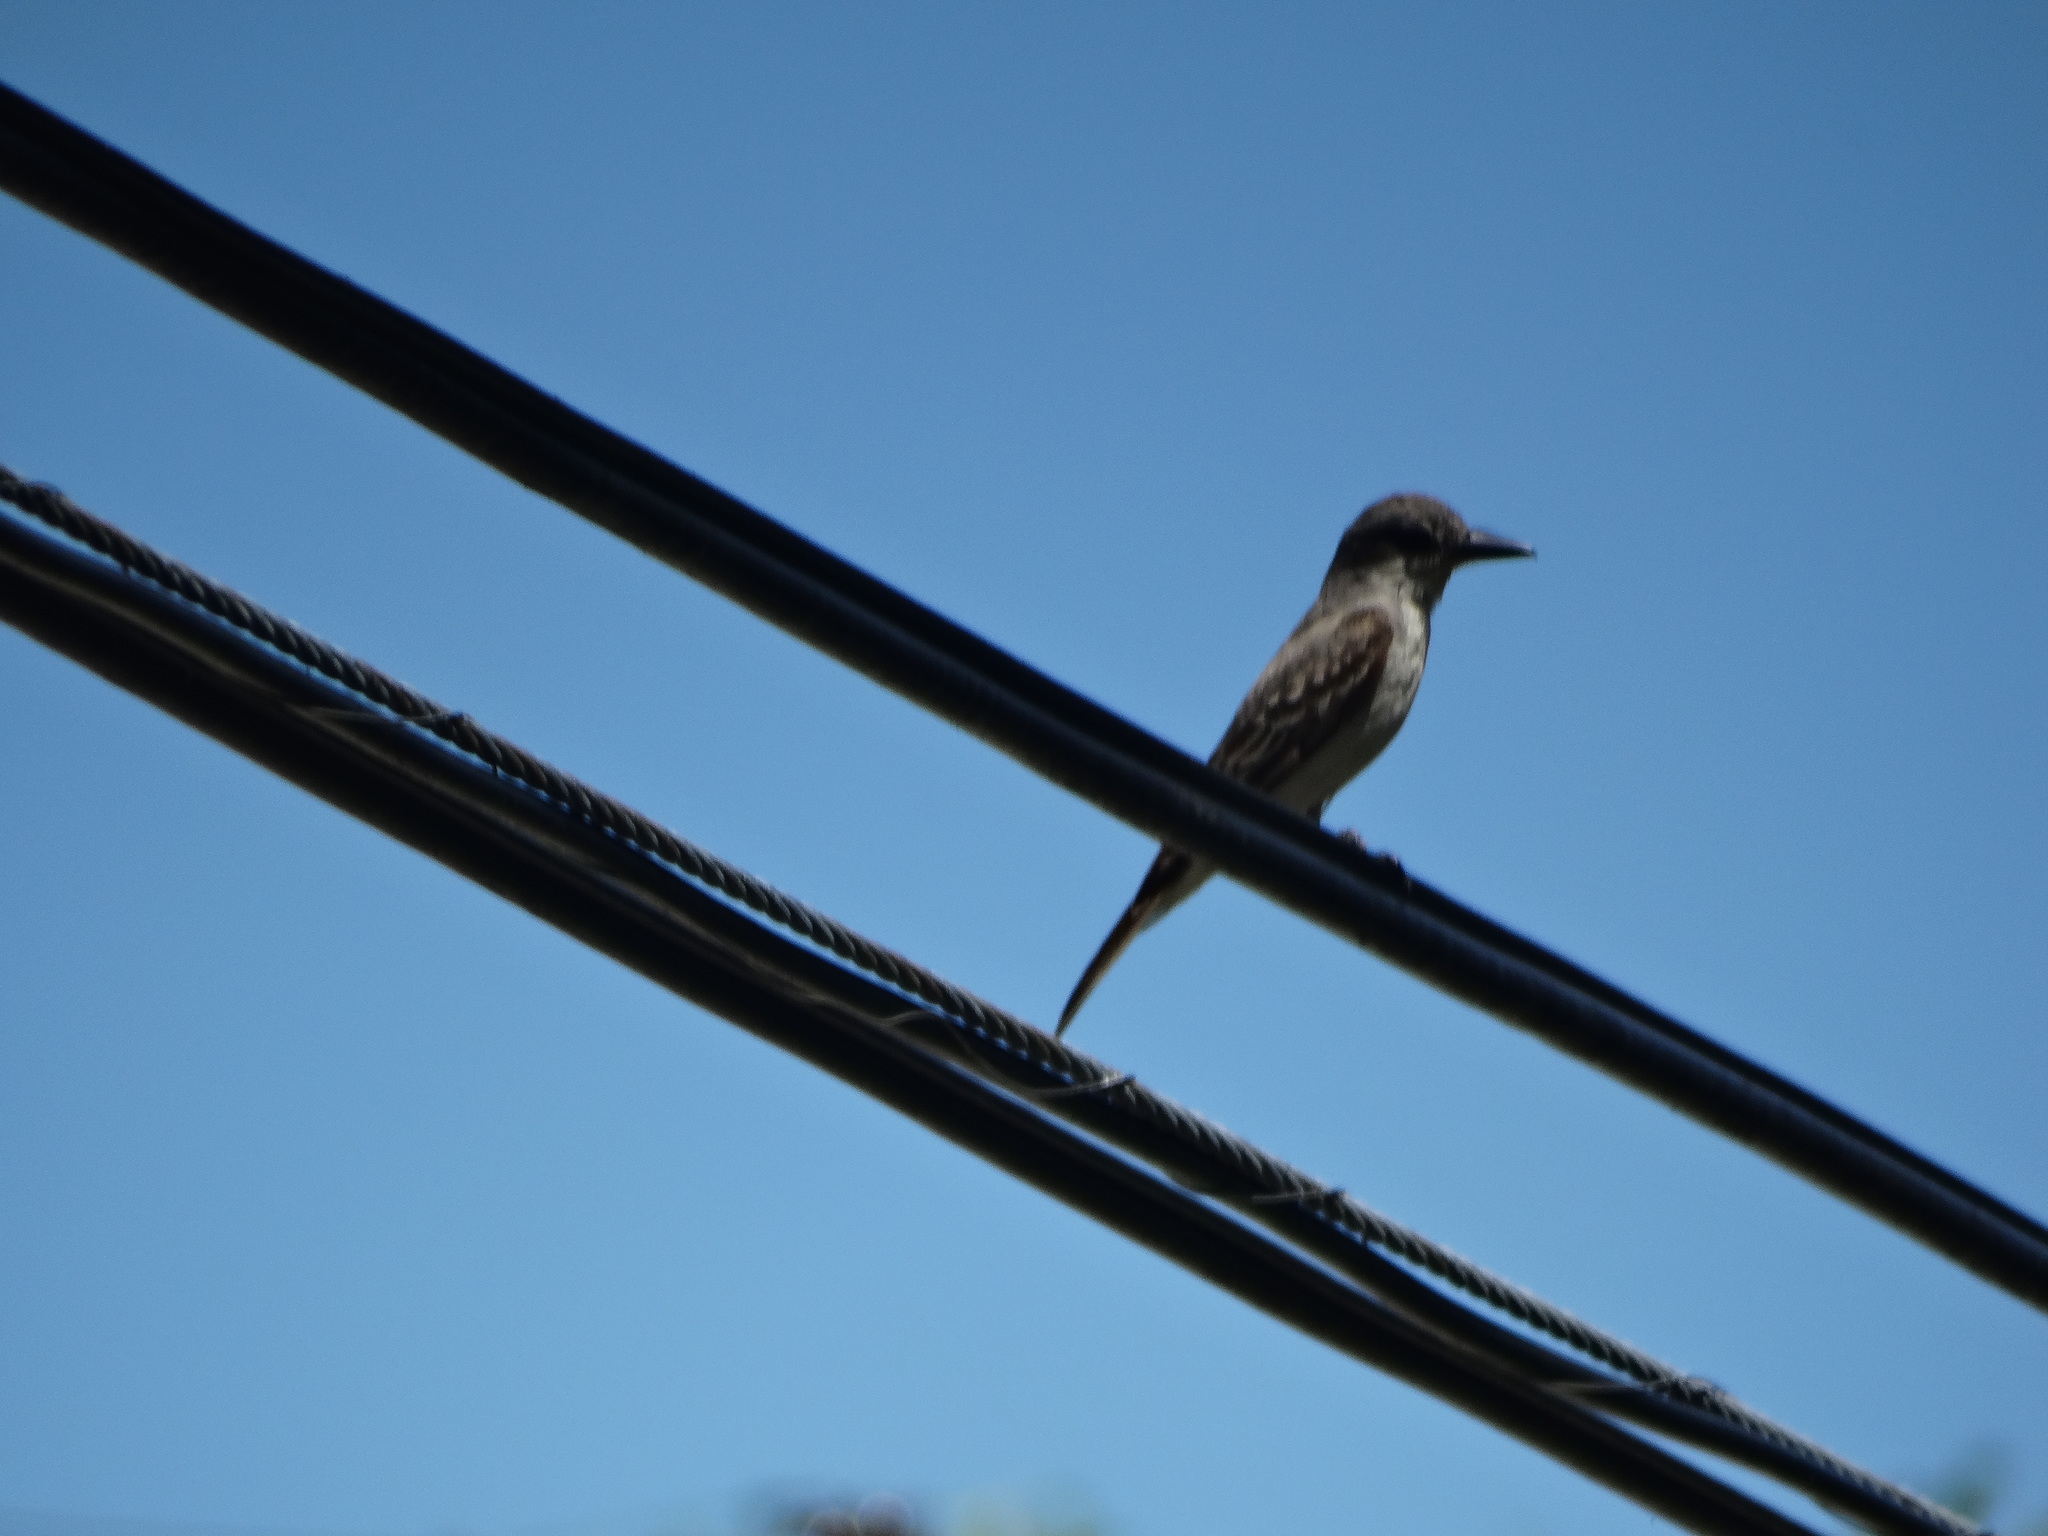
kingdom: Animalia
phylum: Chordata
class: Aves
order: Passeriformes
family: Tyrannidae
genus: Tyrannus
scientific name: Tyrannus dominicensis
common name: Gray kingbird
